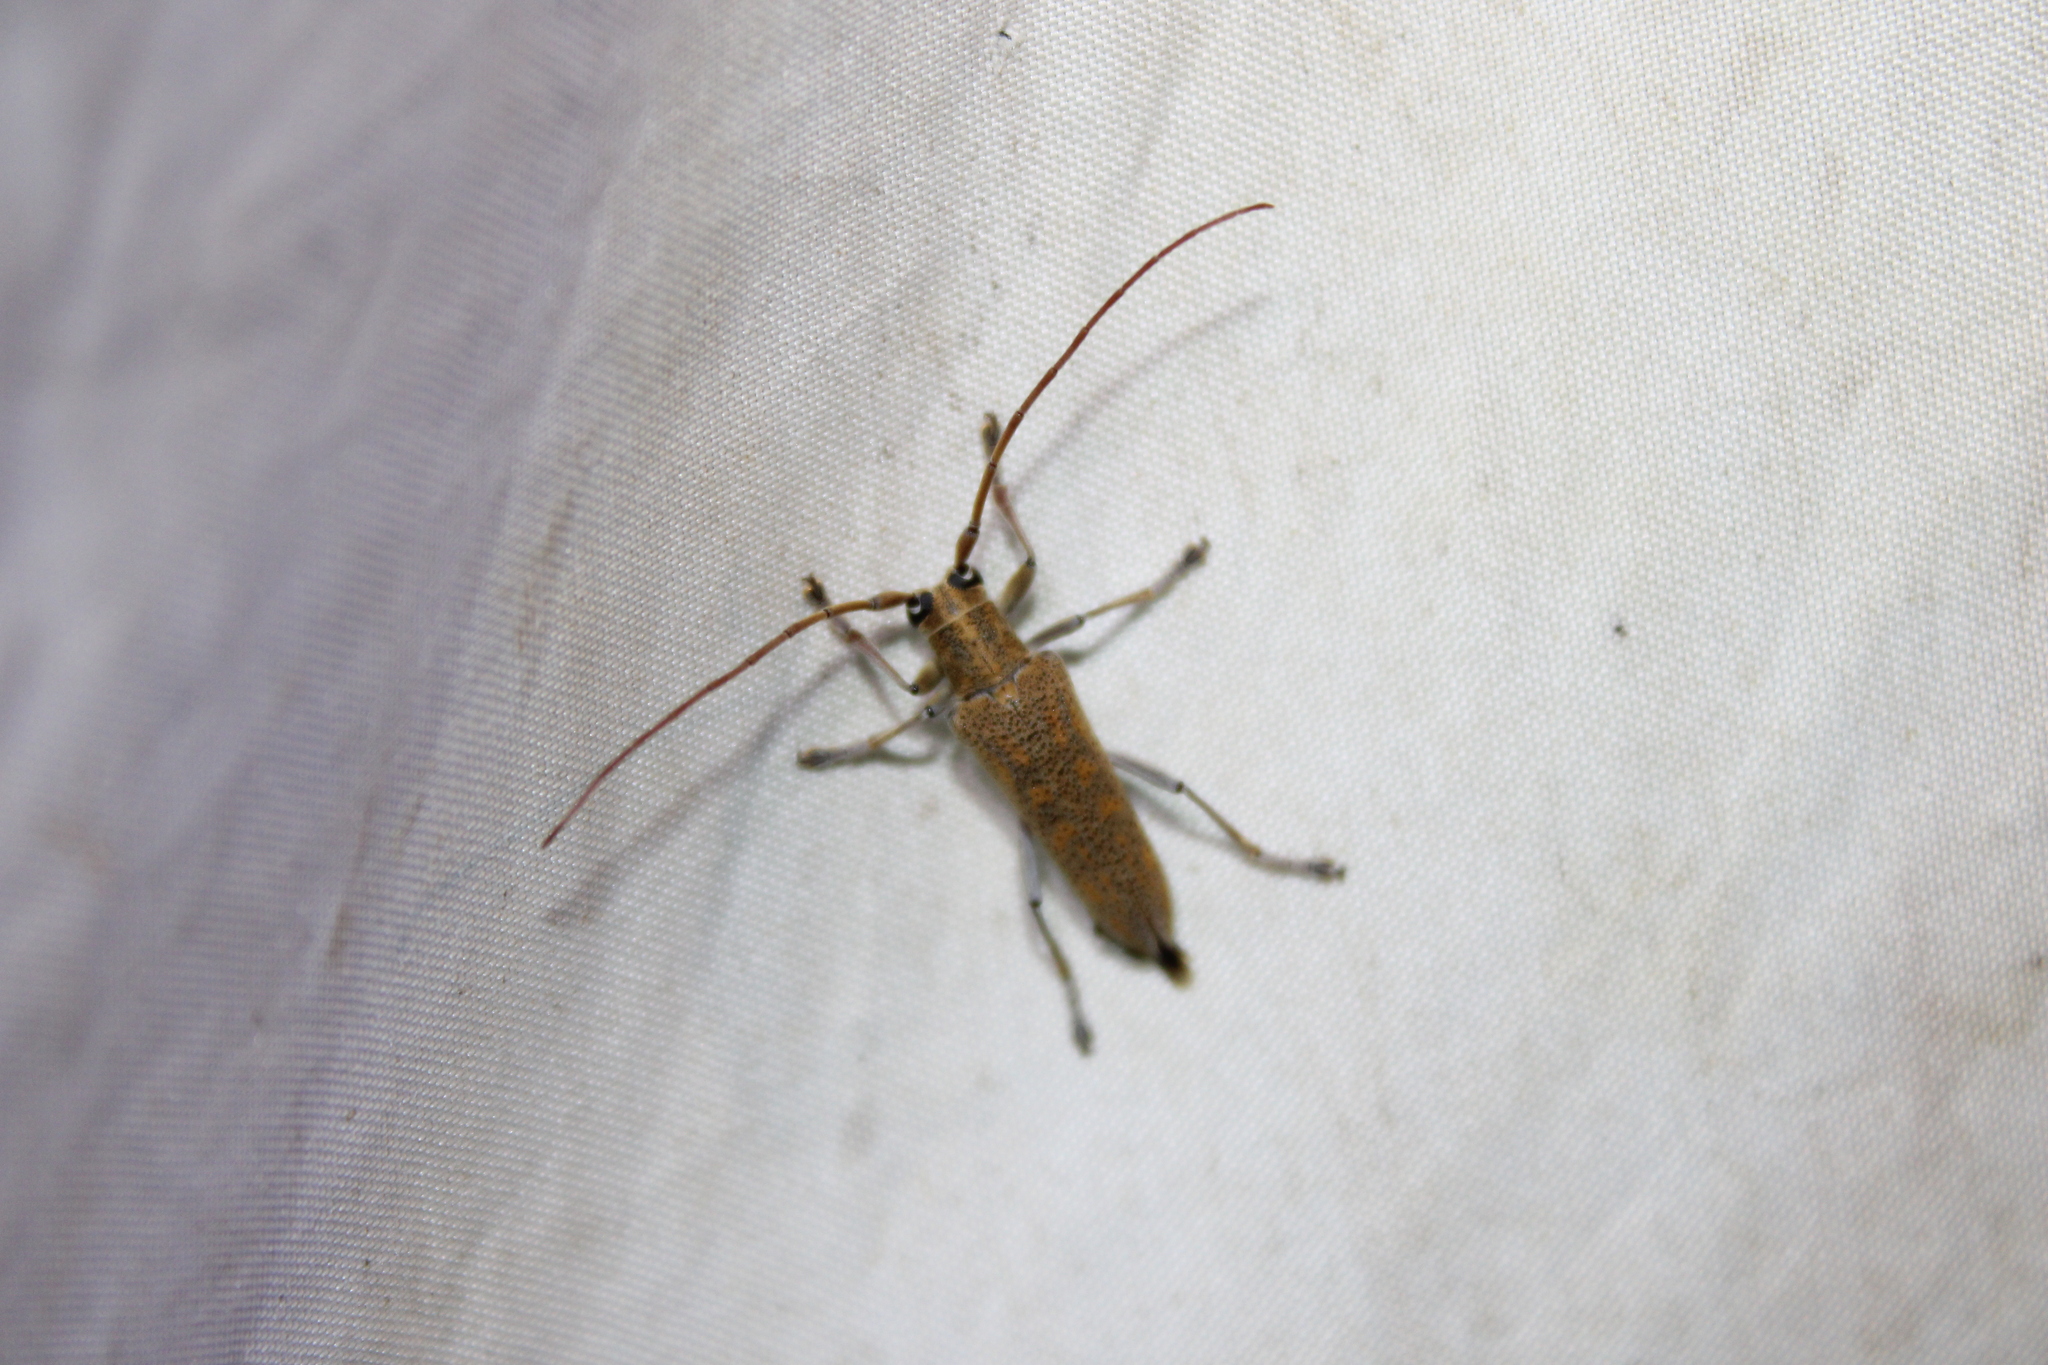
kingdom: Animalia
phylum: Arthropoda
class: Insecta
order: Coleoptera
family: Cerambycidae
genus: Saperda
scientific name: Saperda calcarata
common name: Poplar borer
